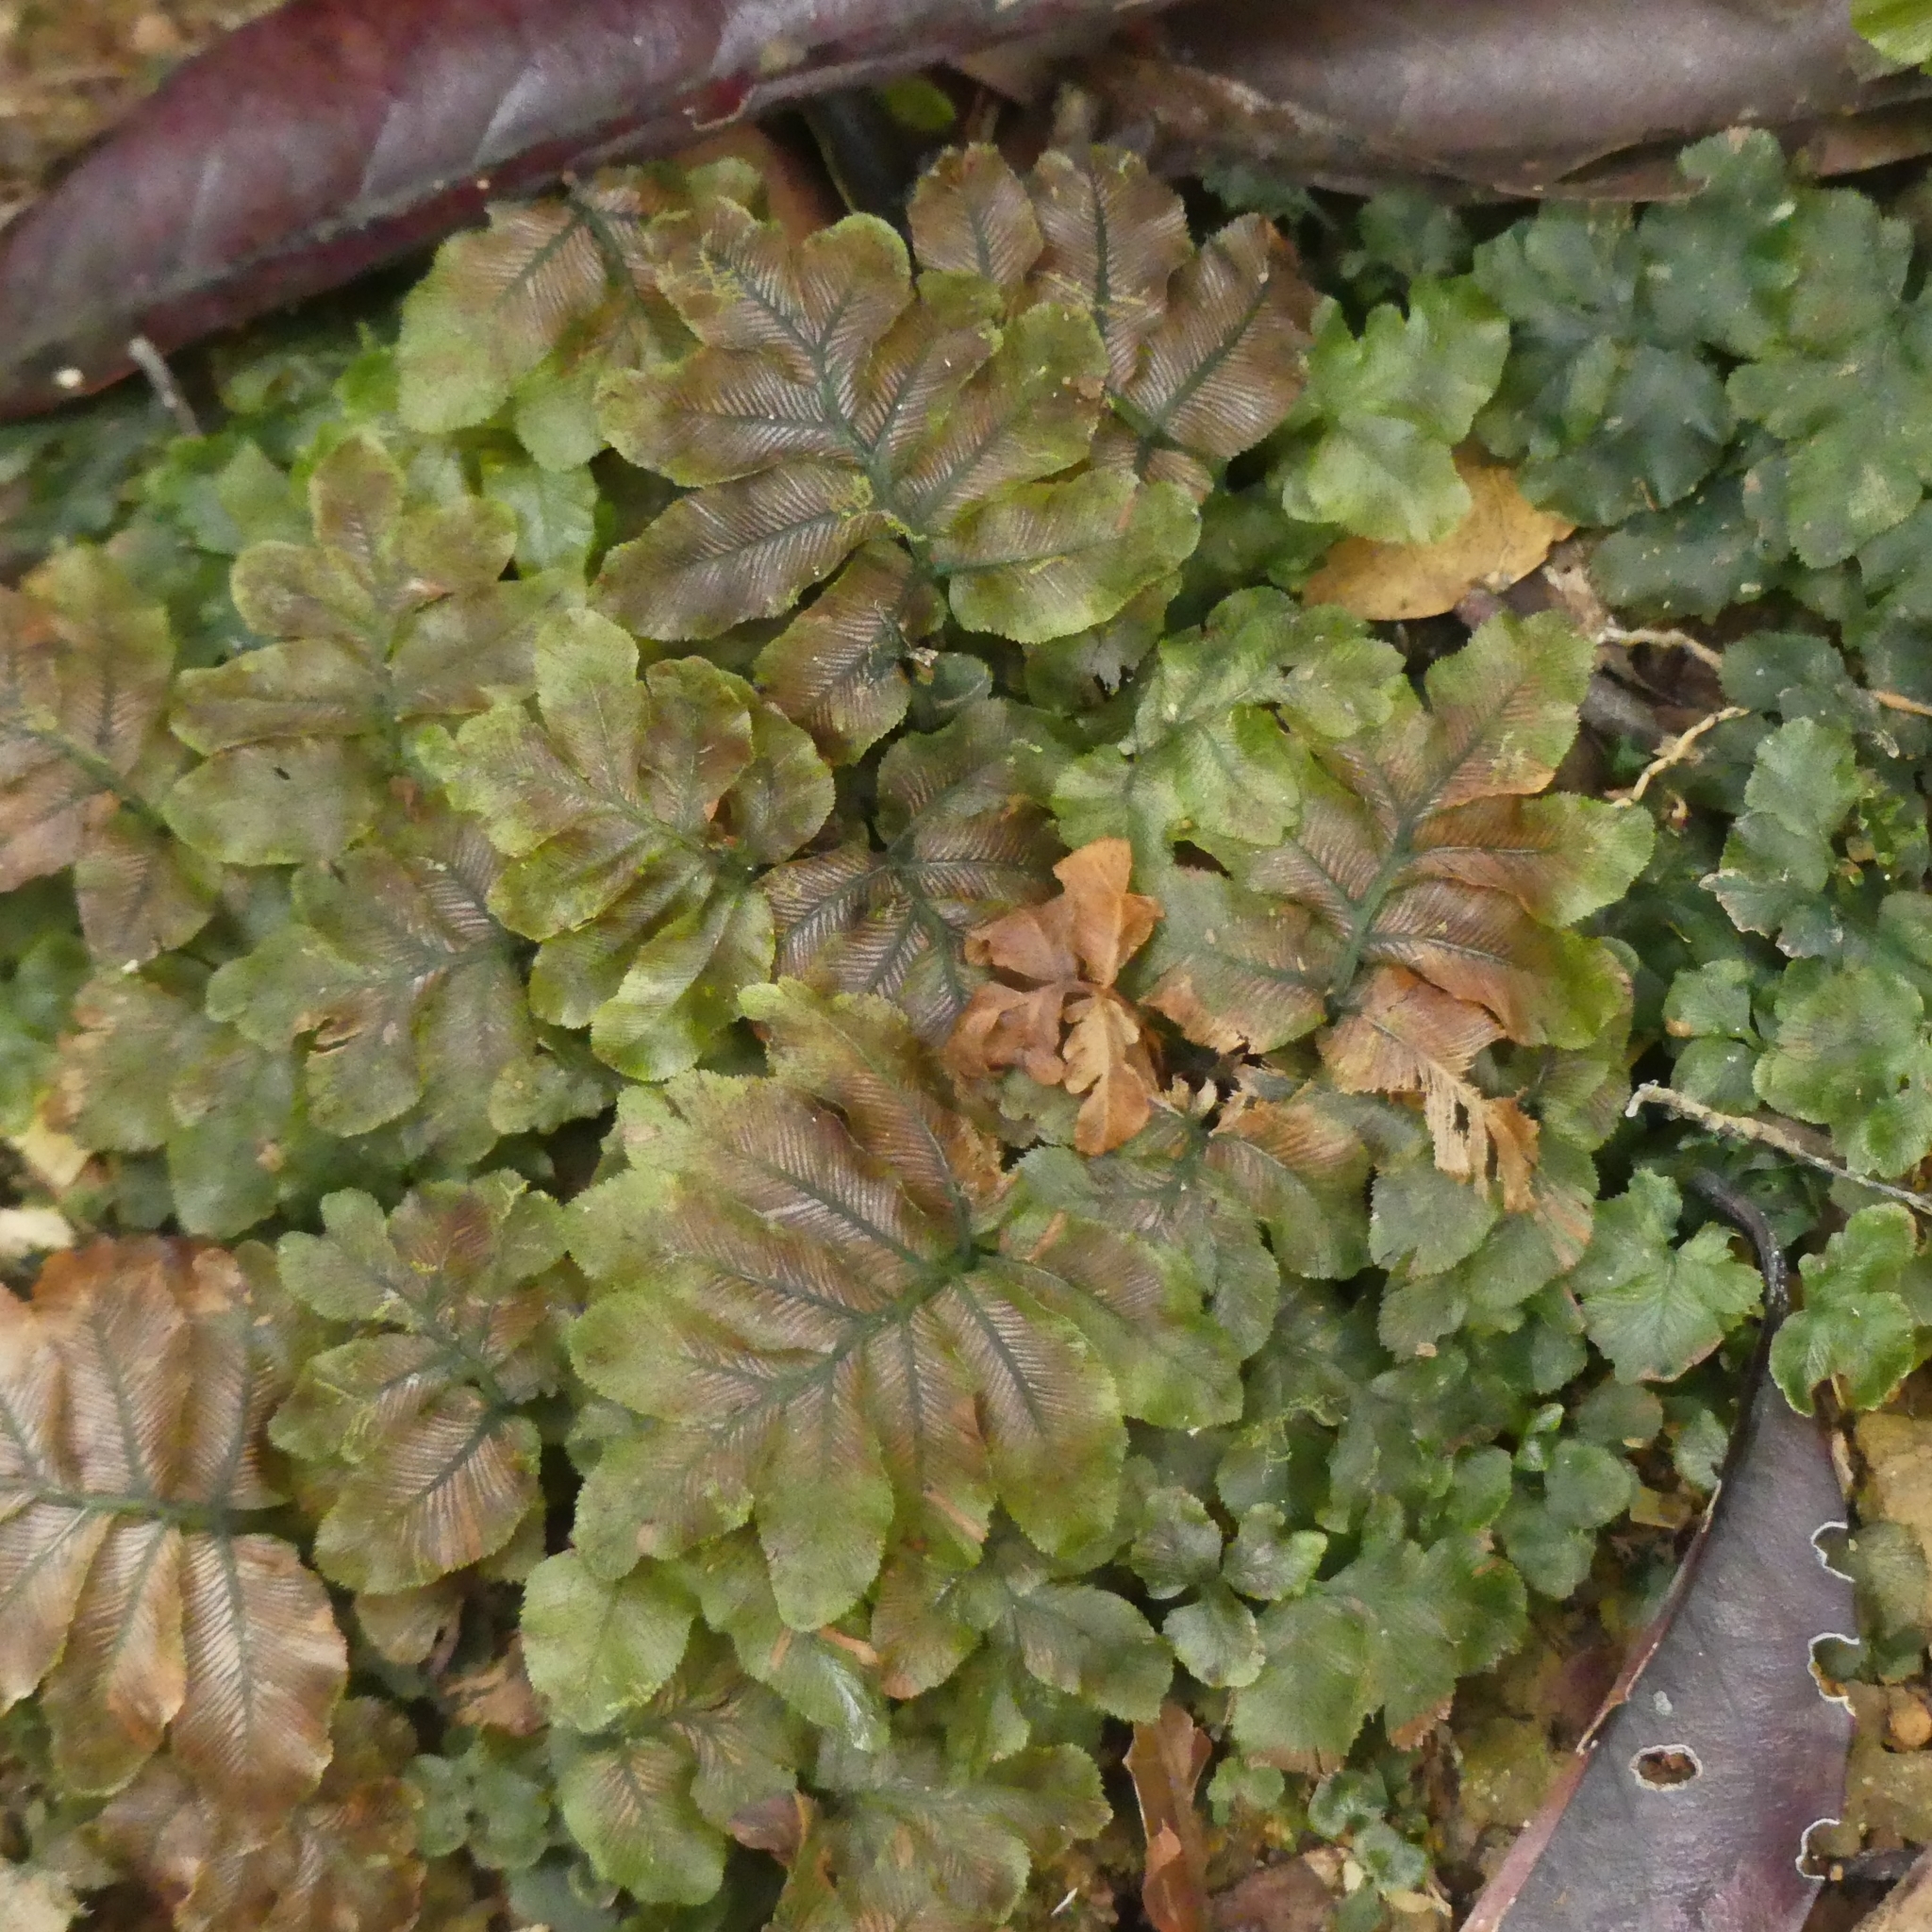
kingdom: Plantae
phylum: Tracheophyta
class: Polypodiopsida
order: Hymenophyllales
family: Hymenophyllaceae
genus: Trichomanes
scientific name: Trichomanes
